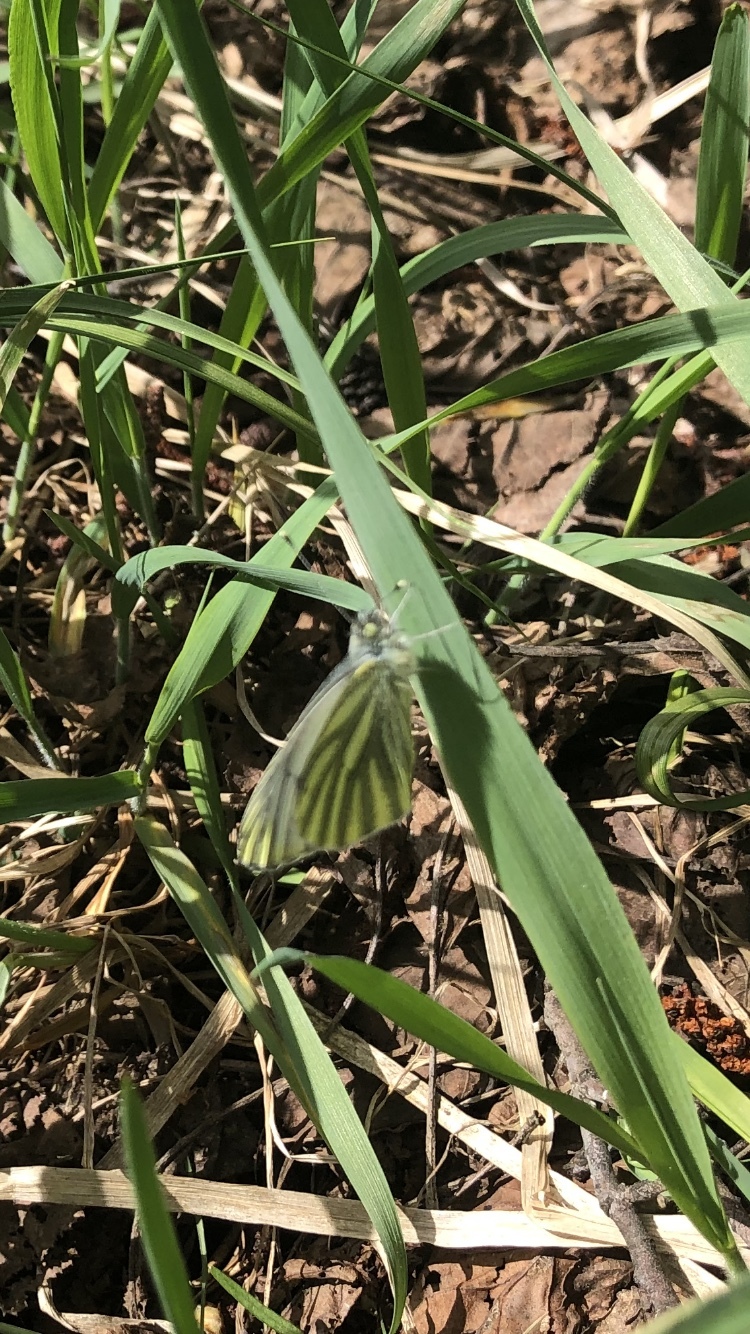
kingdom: Animalia
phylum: Arthropoda
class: Insecta
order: Lepidoptera
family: Pieridae
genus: Pieris
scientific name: Pieris napi
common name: Green-veined white
